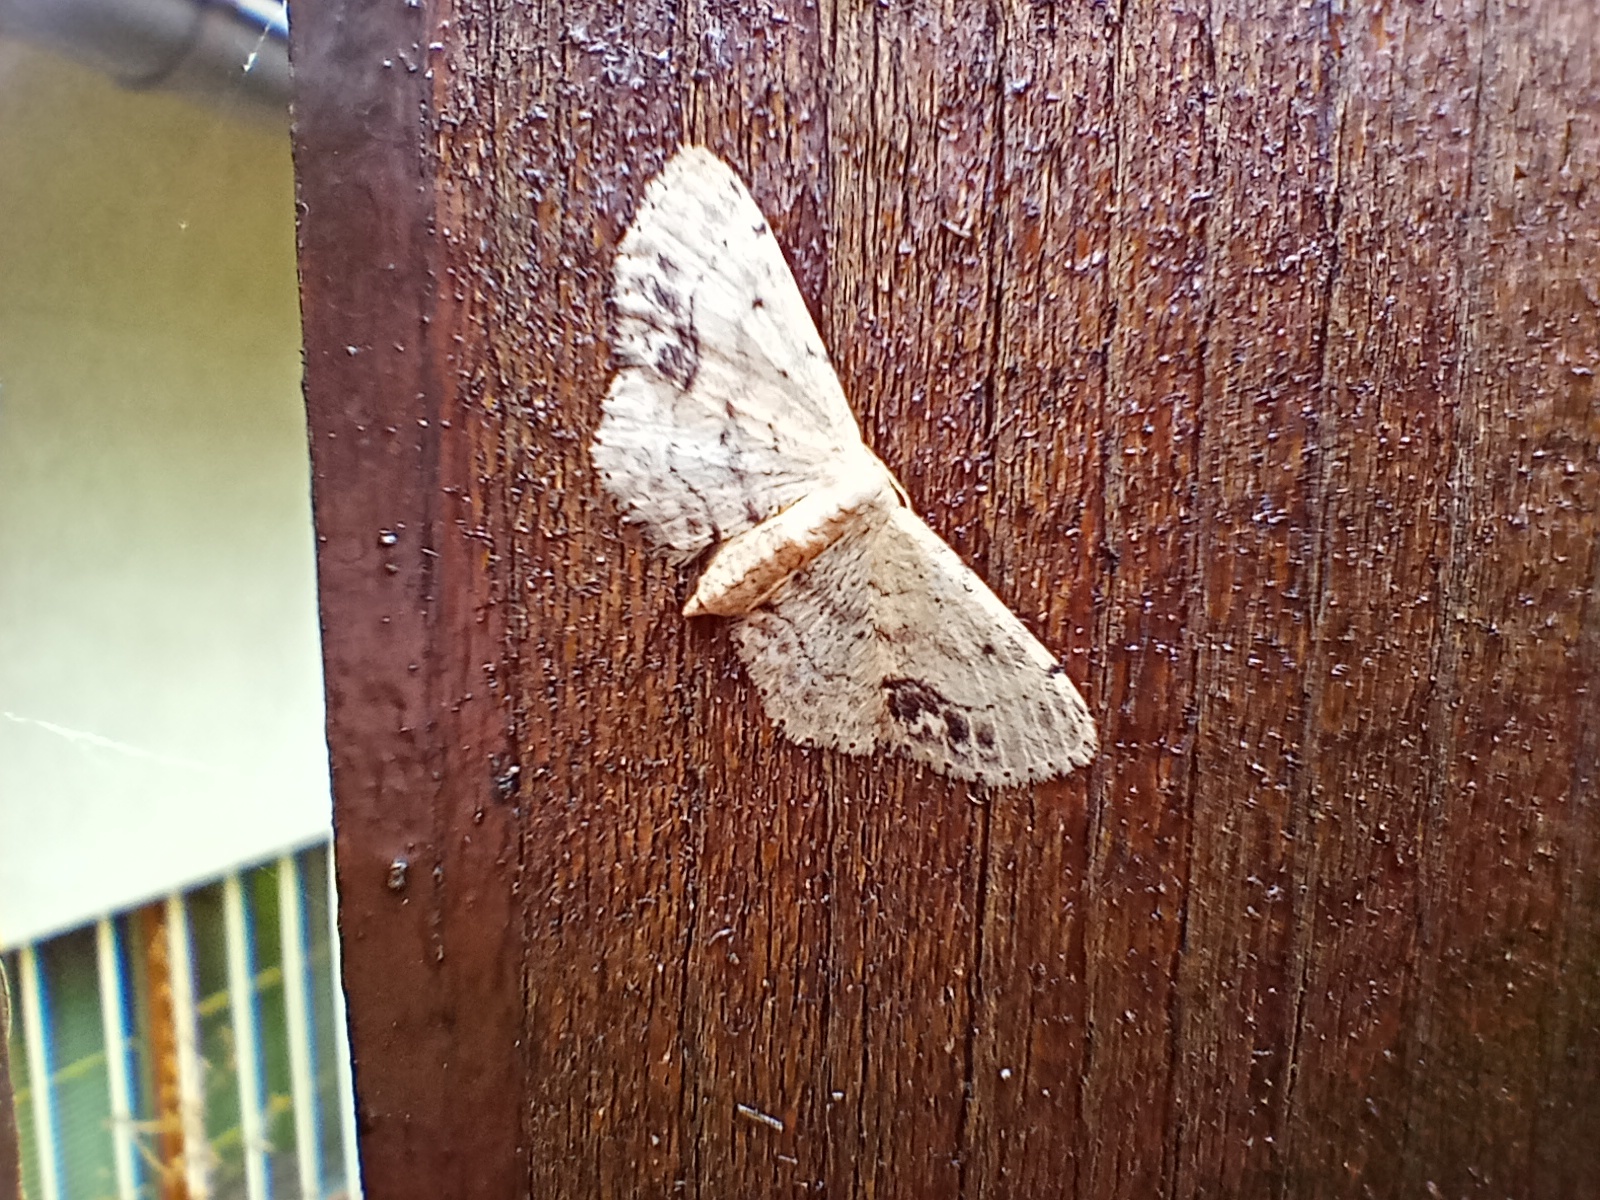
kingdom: Animalia
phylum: Arthropoda
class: Insecta
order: Lepidoptera
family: Geometridae
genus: Idaea
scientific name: Idaea dimidiata
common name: Single-dotted wave
